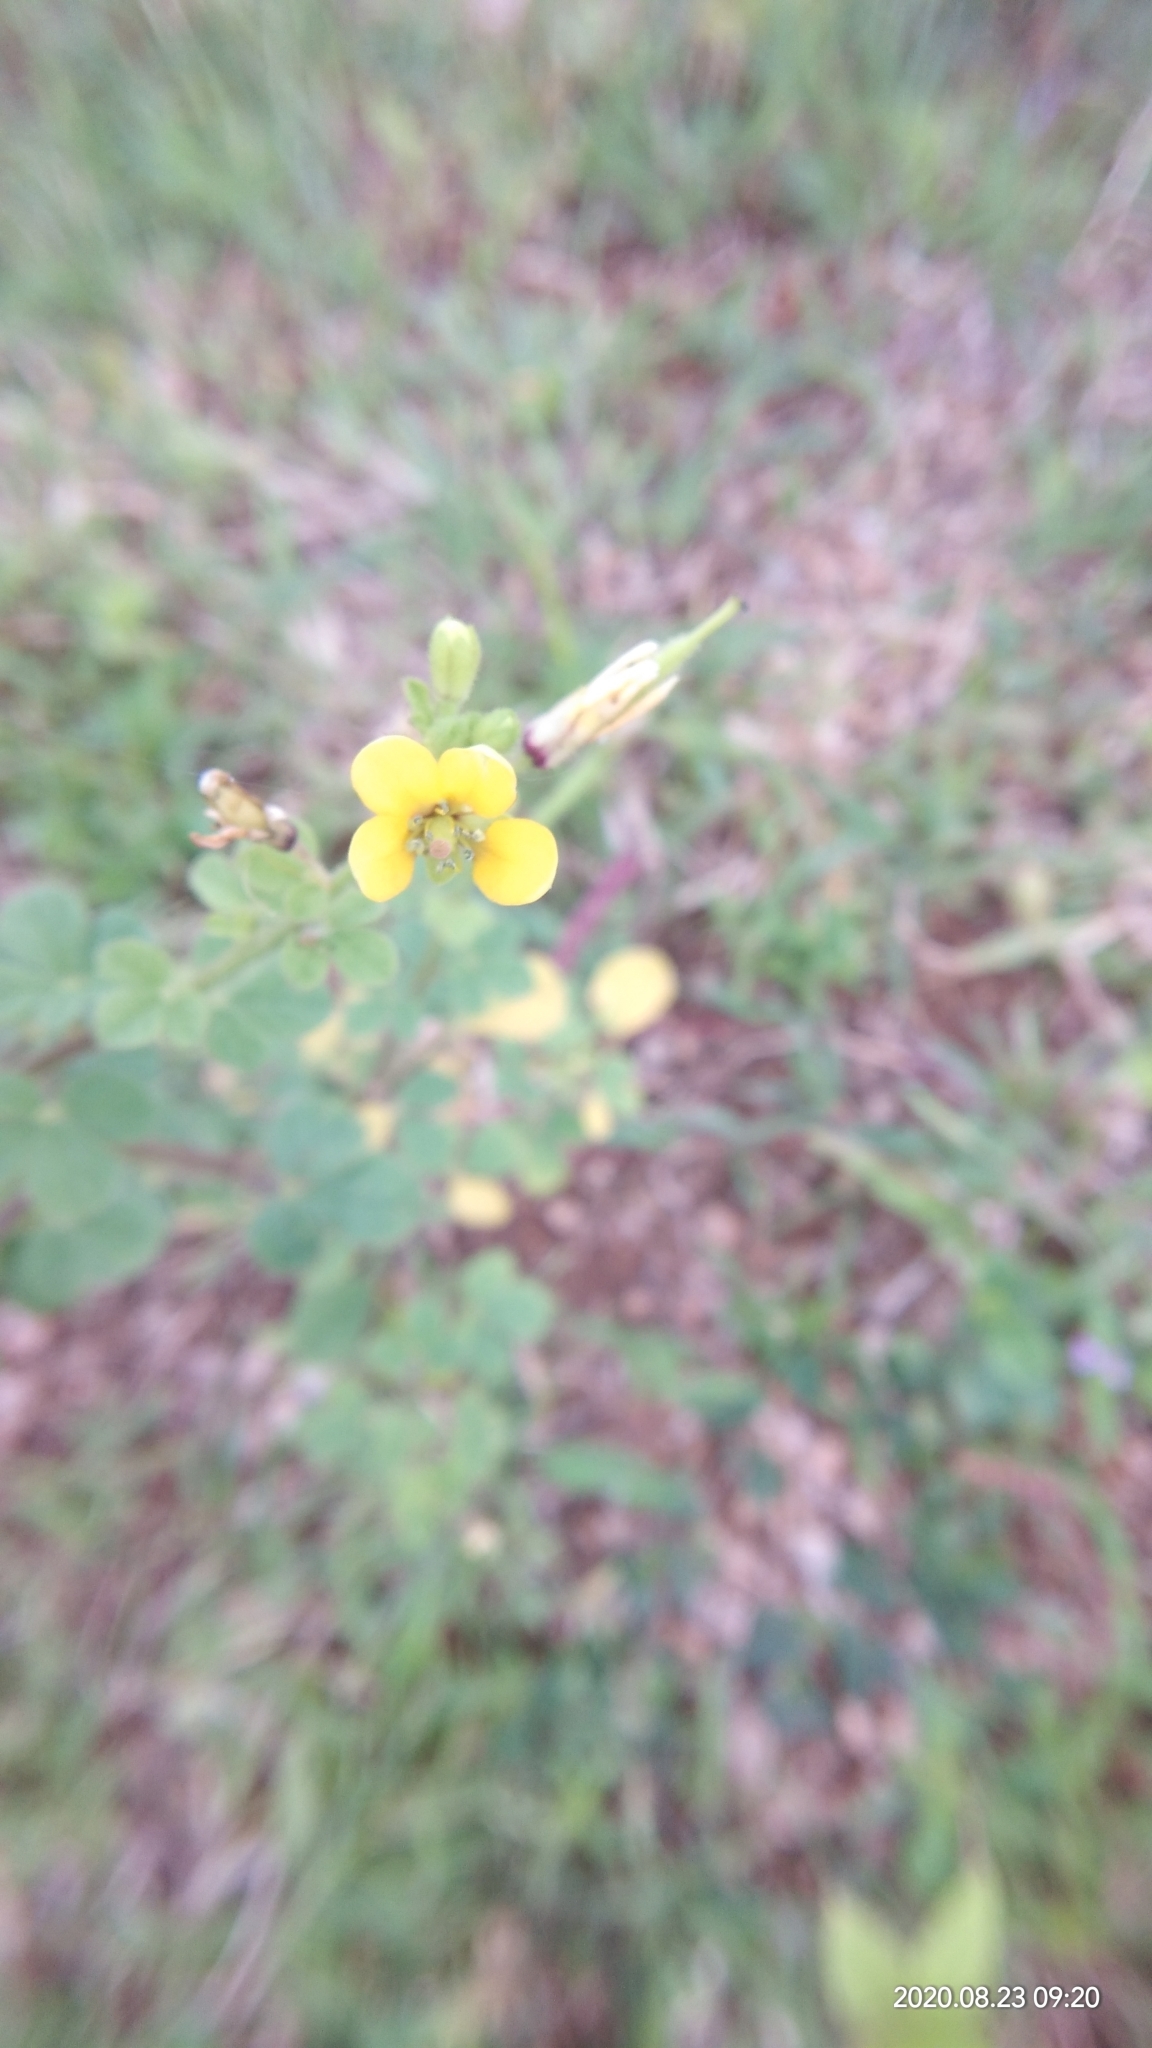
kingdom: Plantae
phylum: Tracheophyta
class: Magnoliopsida
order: Brassicales
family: Cleomaceae
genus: Arivela
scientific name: Arivela viscosa
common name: Asian spiderflower
